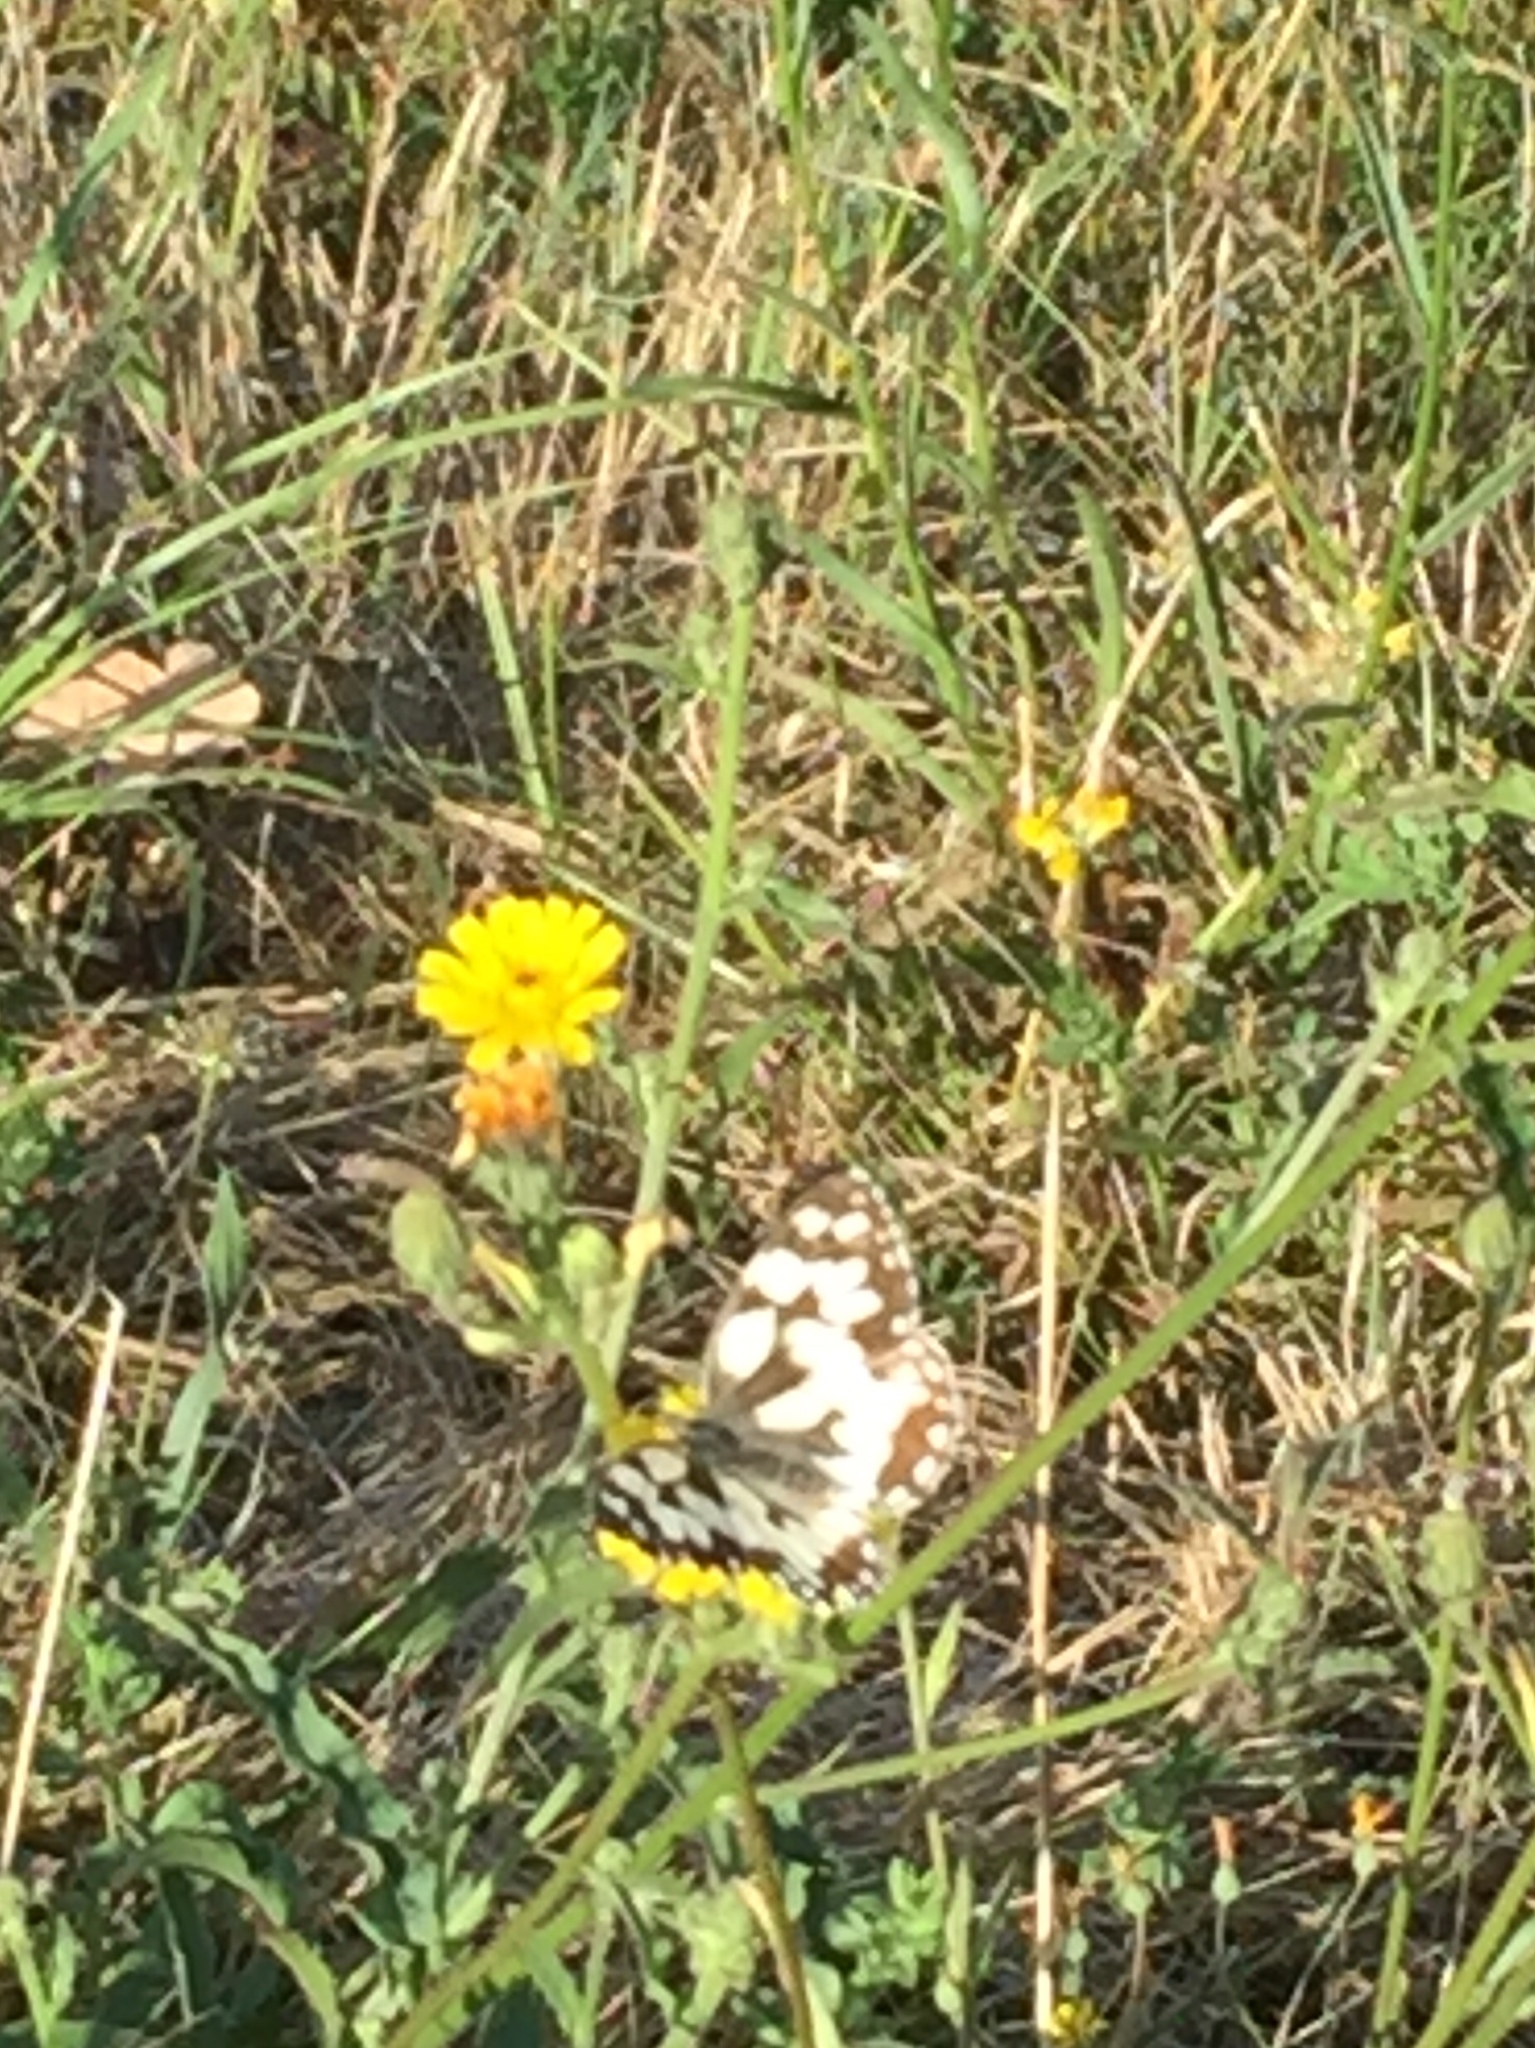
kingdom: Animalia
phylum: Arthropoda
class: Insecta
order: Lepidoptera
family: Nymphalidae
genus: Melanargia
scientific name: Melanargia galathea
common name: Marbled white
